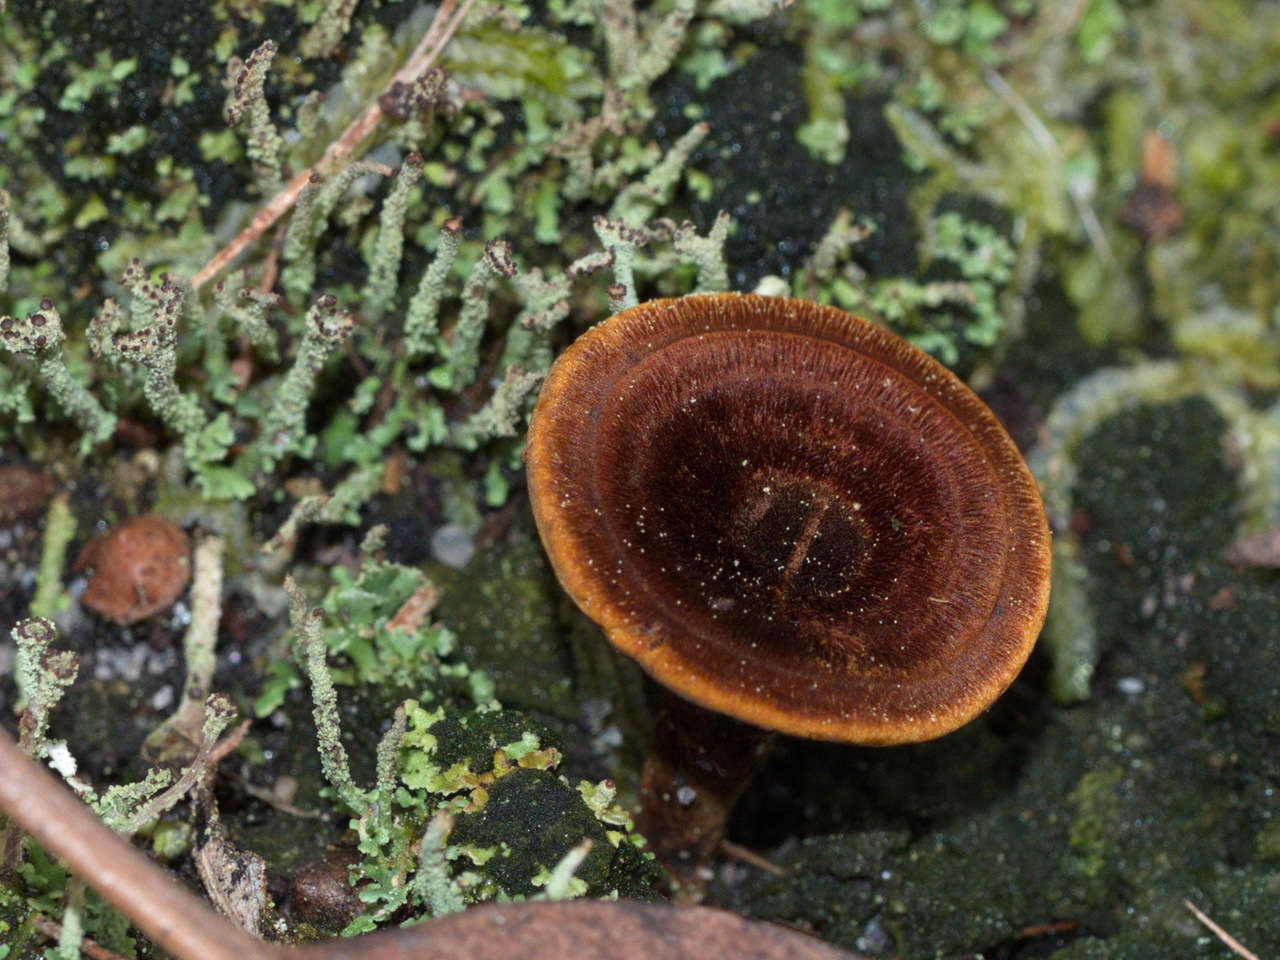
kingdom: Fungi
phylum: Basidiomycota
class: Agaricomycetes
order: Hymenochaetales
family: Hymenochaetaceae
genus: Coltricia
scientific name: Coltricia australica
